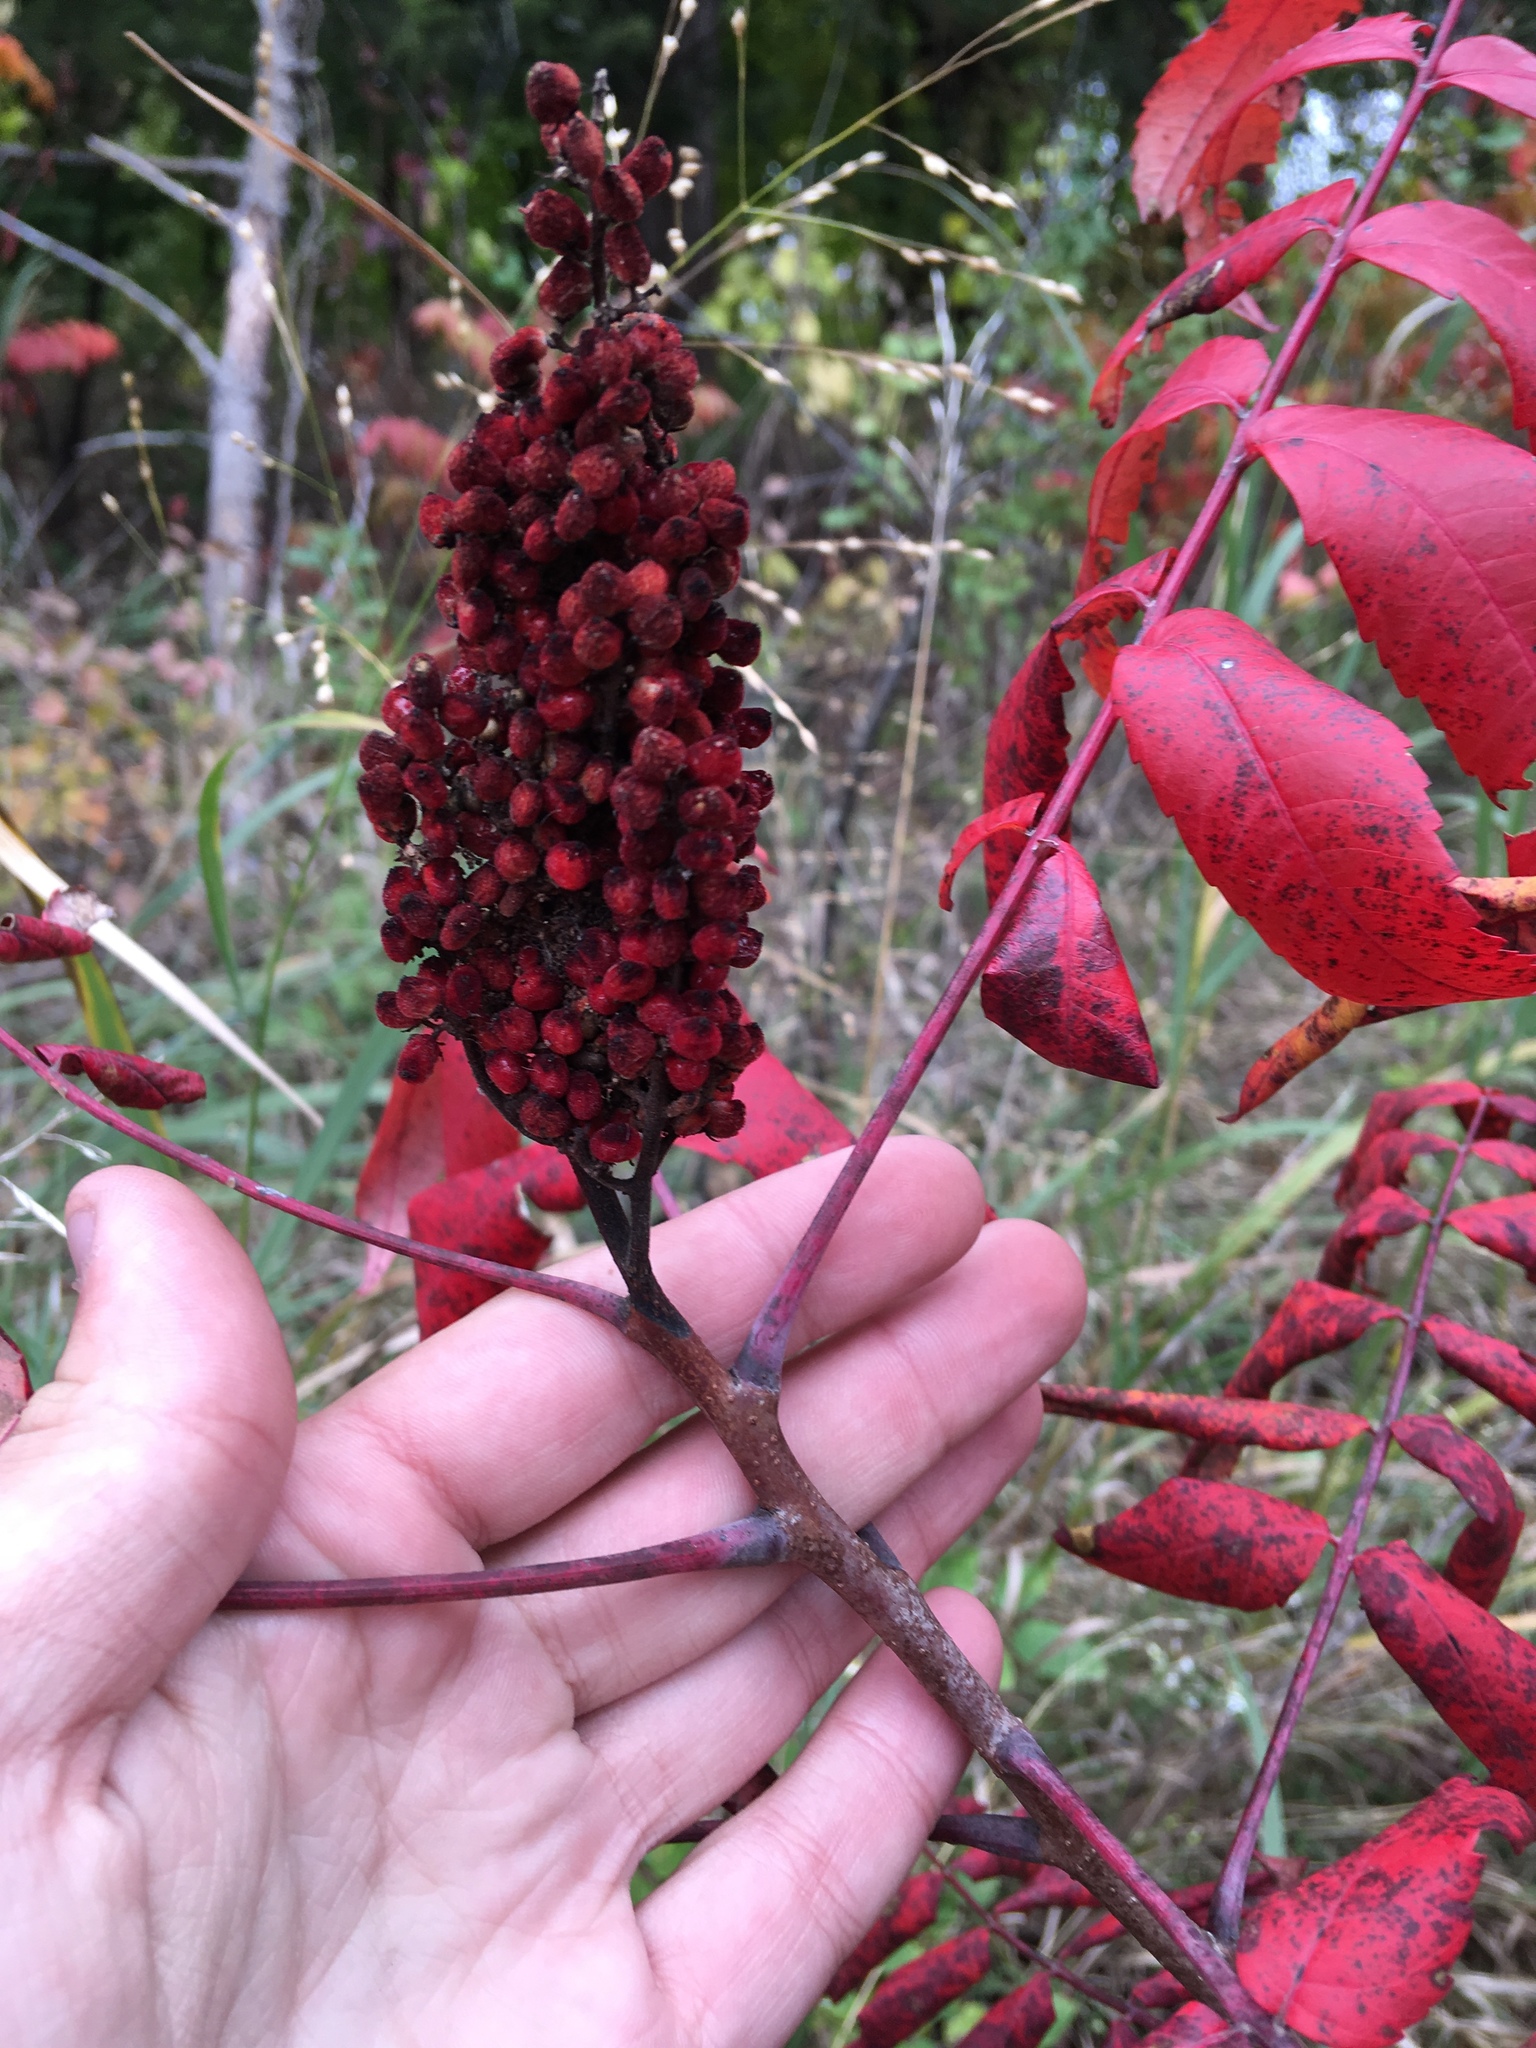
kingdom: Plantae
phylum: Tracheophyta
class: Magnoliopsida
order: Sapindales
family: Anacardiaceae
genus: Rhus
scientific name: Rhus glabra
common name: Scarlet sumac
